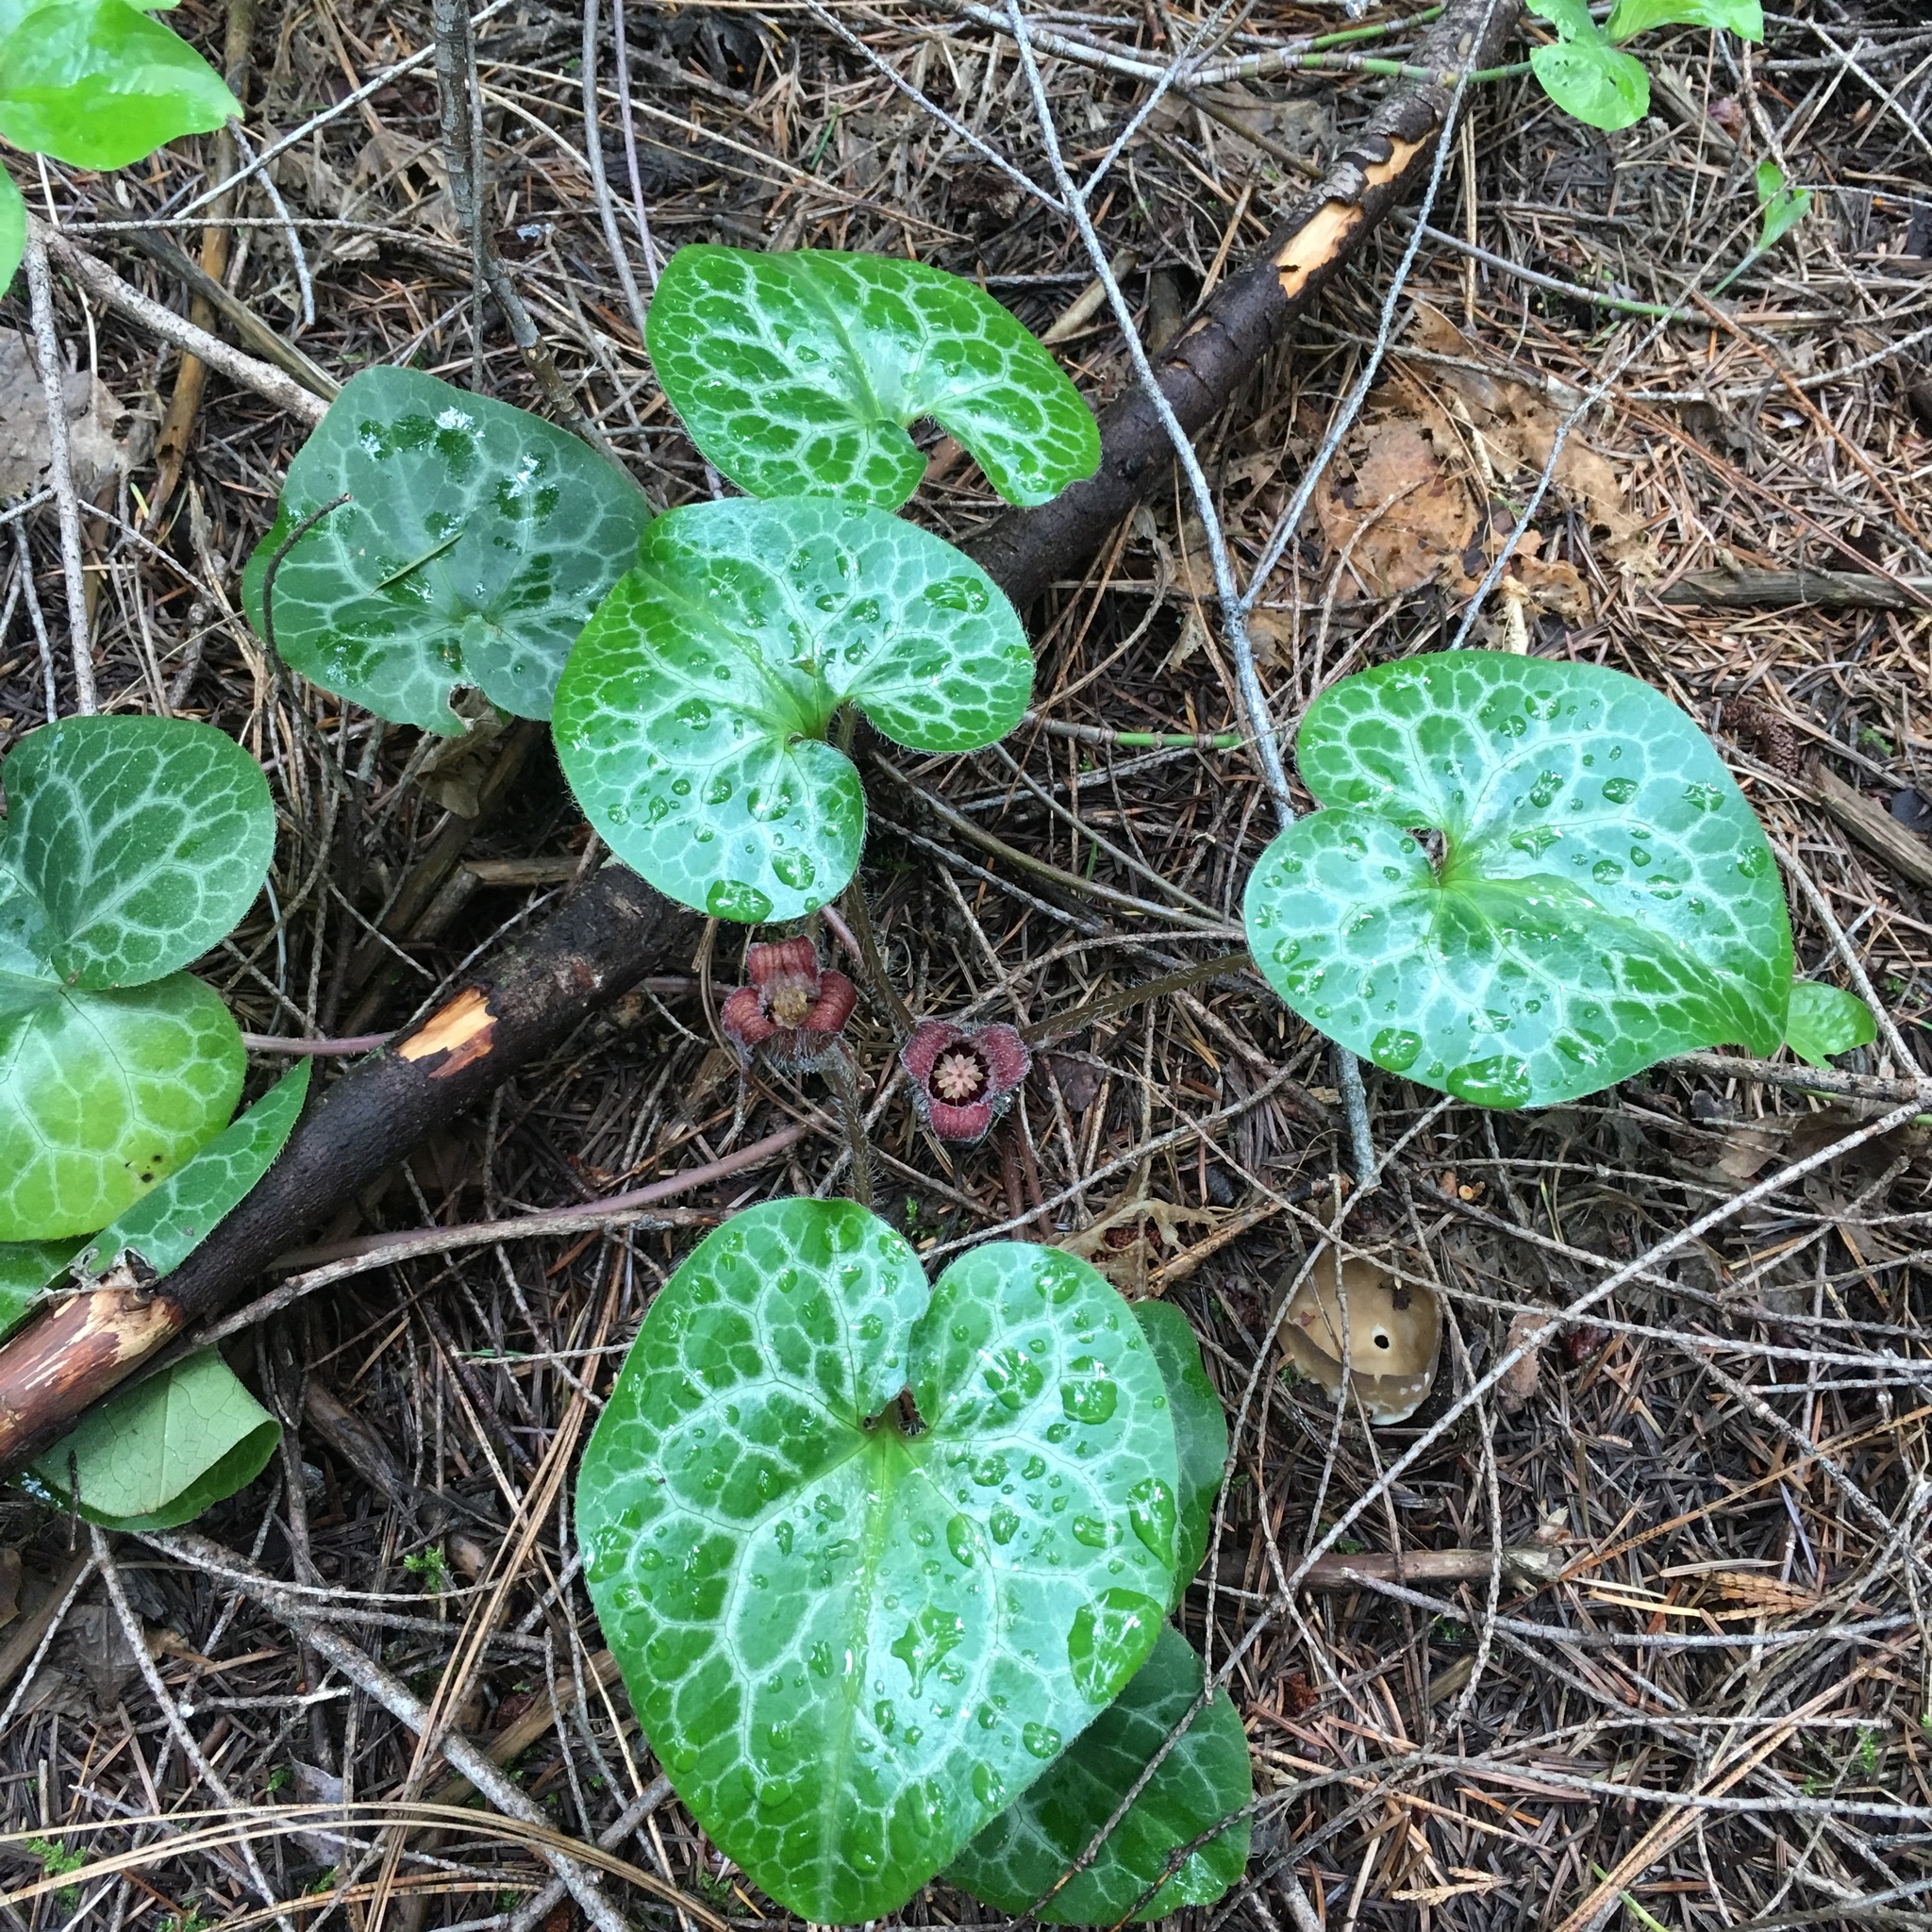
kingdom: Plantae
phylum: Tracheophyta
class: Magnoliopsida
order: Piperales
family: Aristolochiaceae
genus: Asarum
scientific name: Asarum hartwegii
